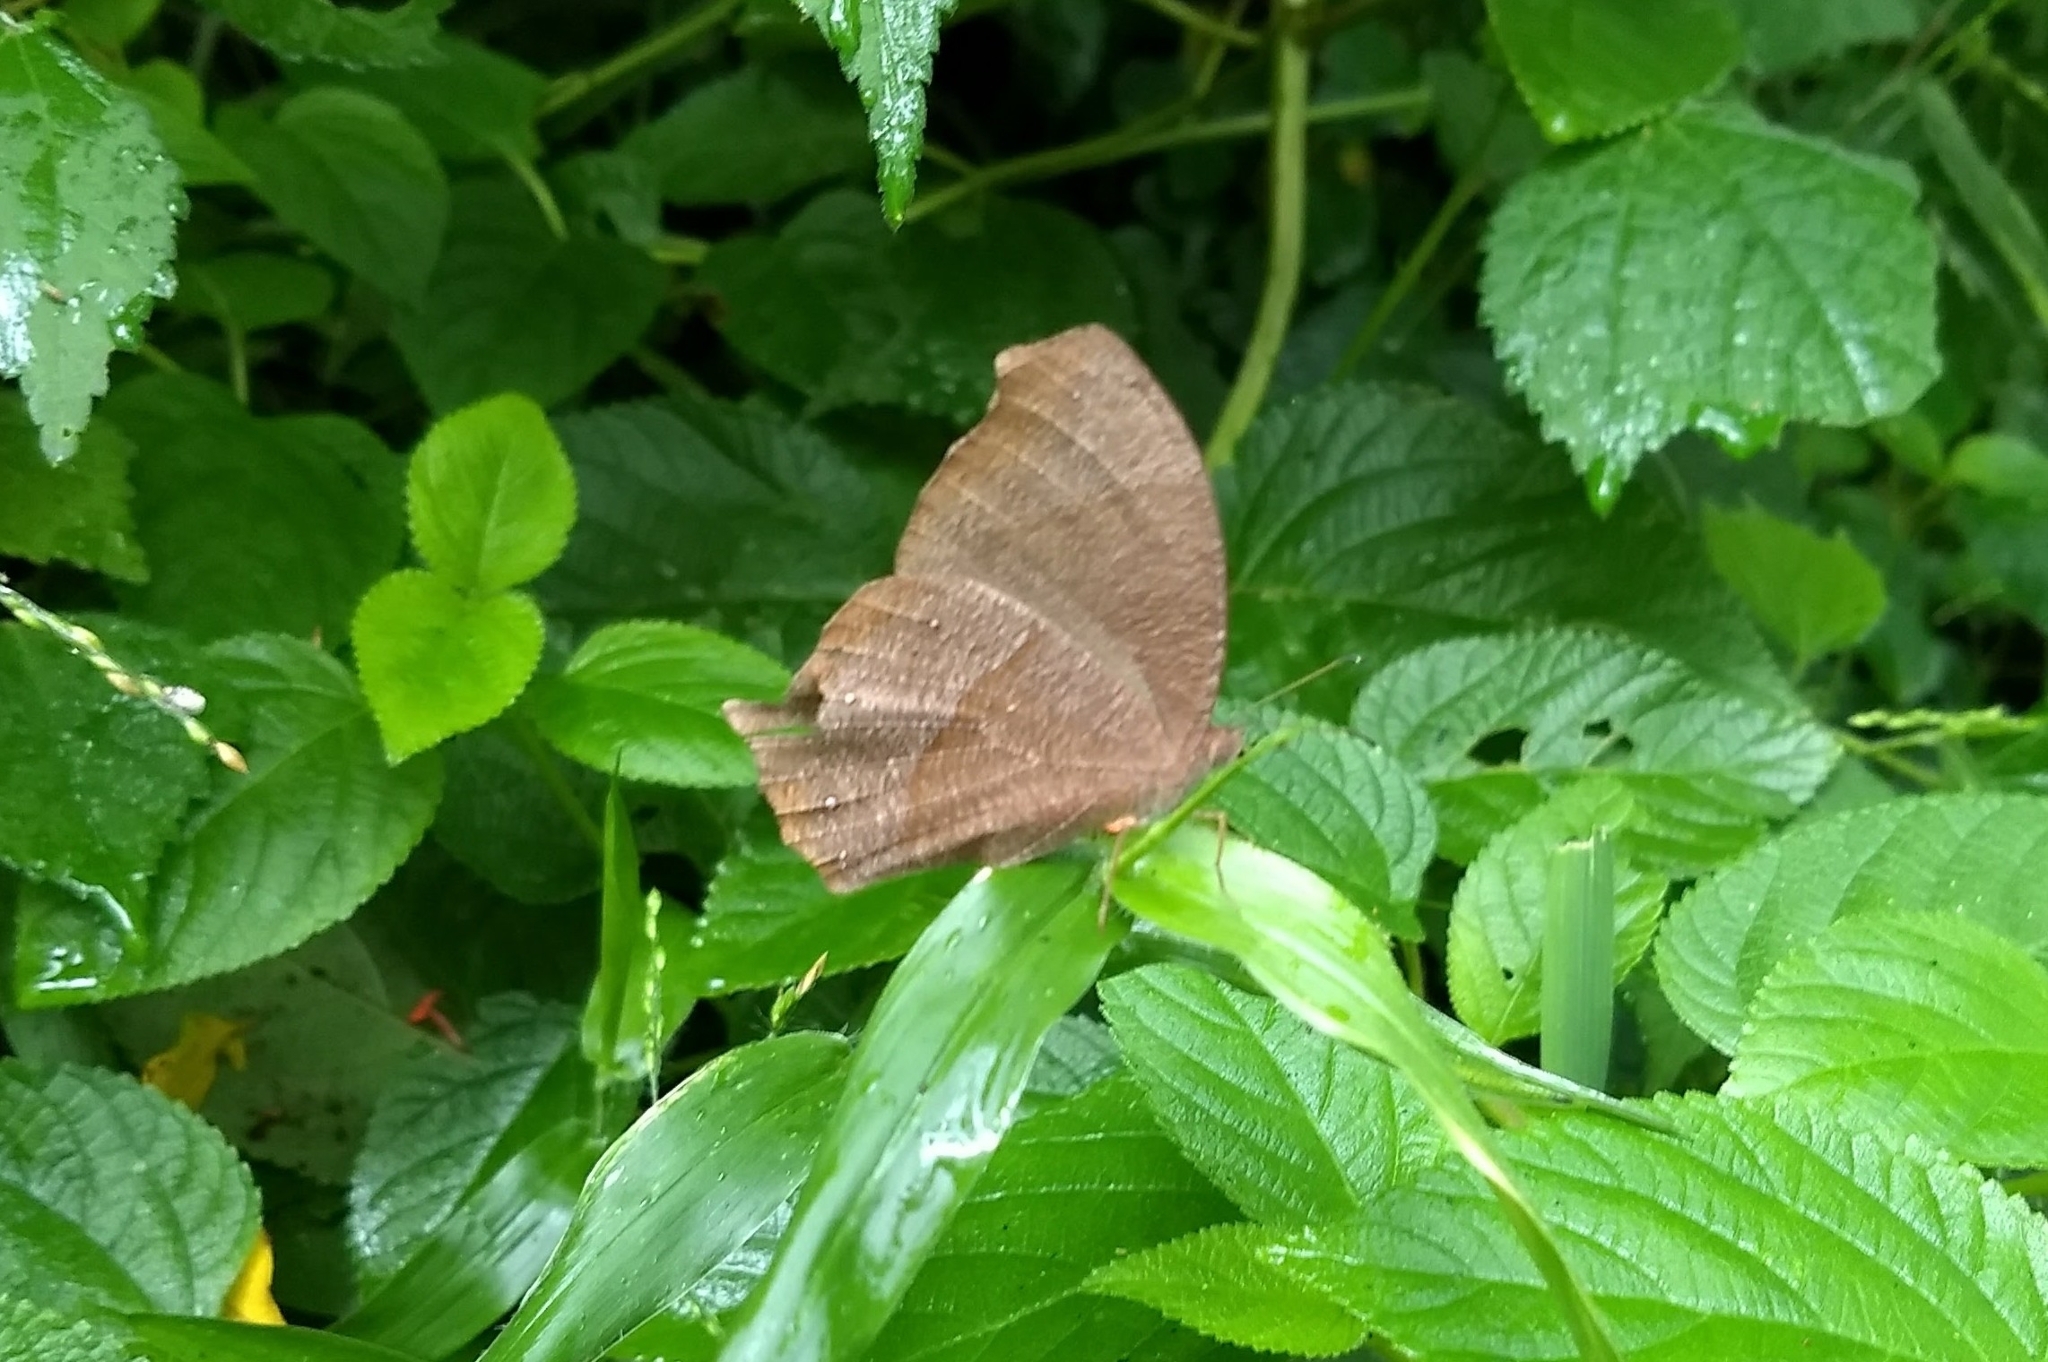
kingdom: Animalia
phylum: Arthropoda
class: Insecta
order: Lepidoptera
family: Nymphalidae
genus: Melanitis
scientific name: Melanitis phedima
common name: Dark evening brown
